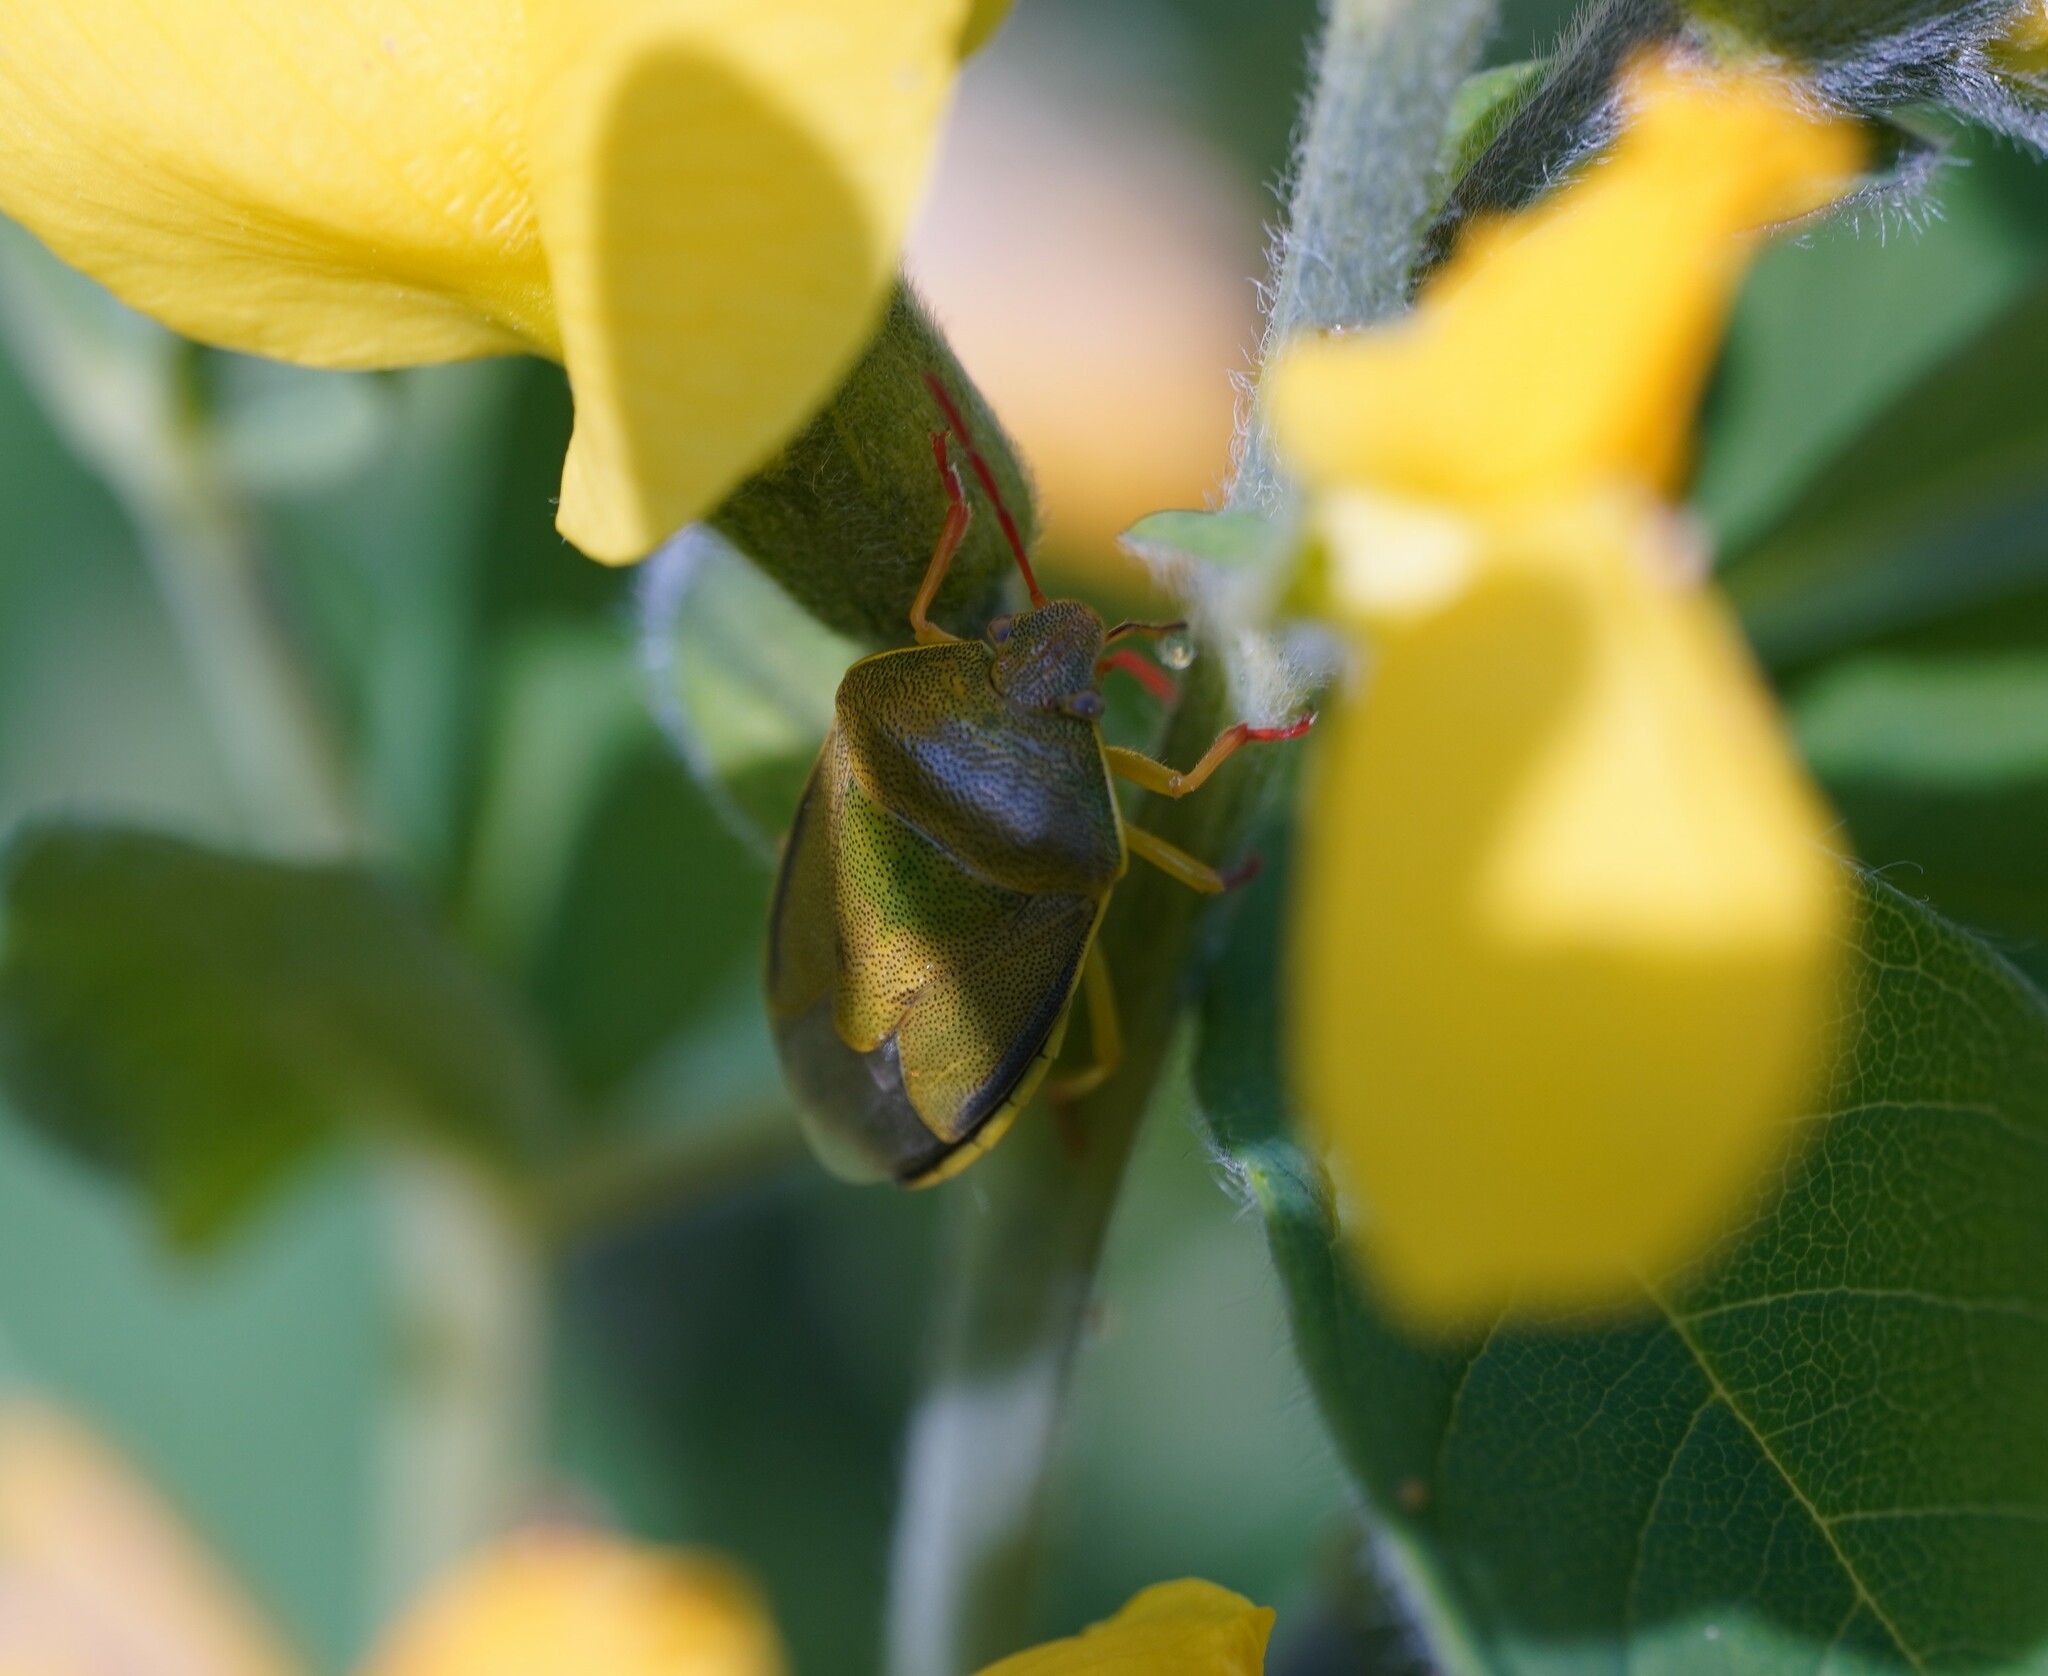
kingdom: Animalia
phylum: Arthropoda
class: Insecta
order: Hemiptera
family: Pentatomidae
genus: Piezodorus
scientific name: Piezodorus lituratus
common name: Stink bug
